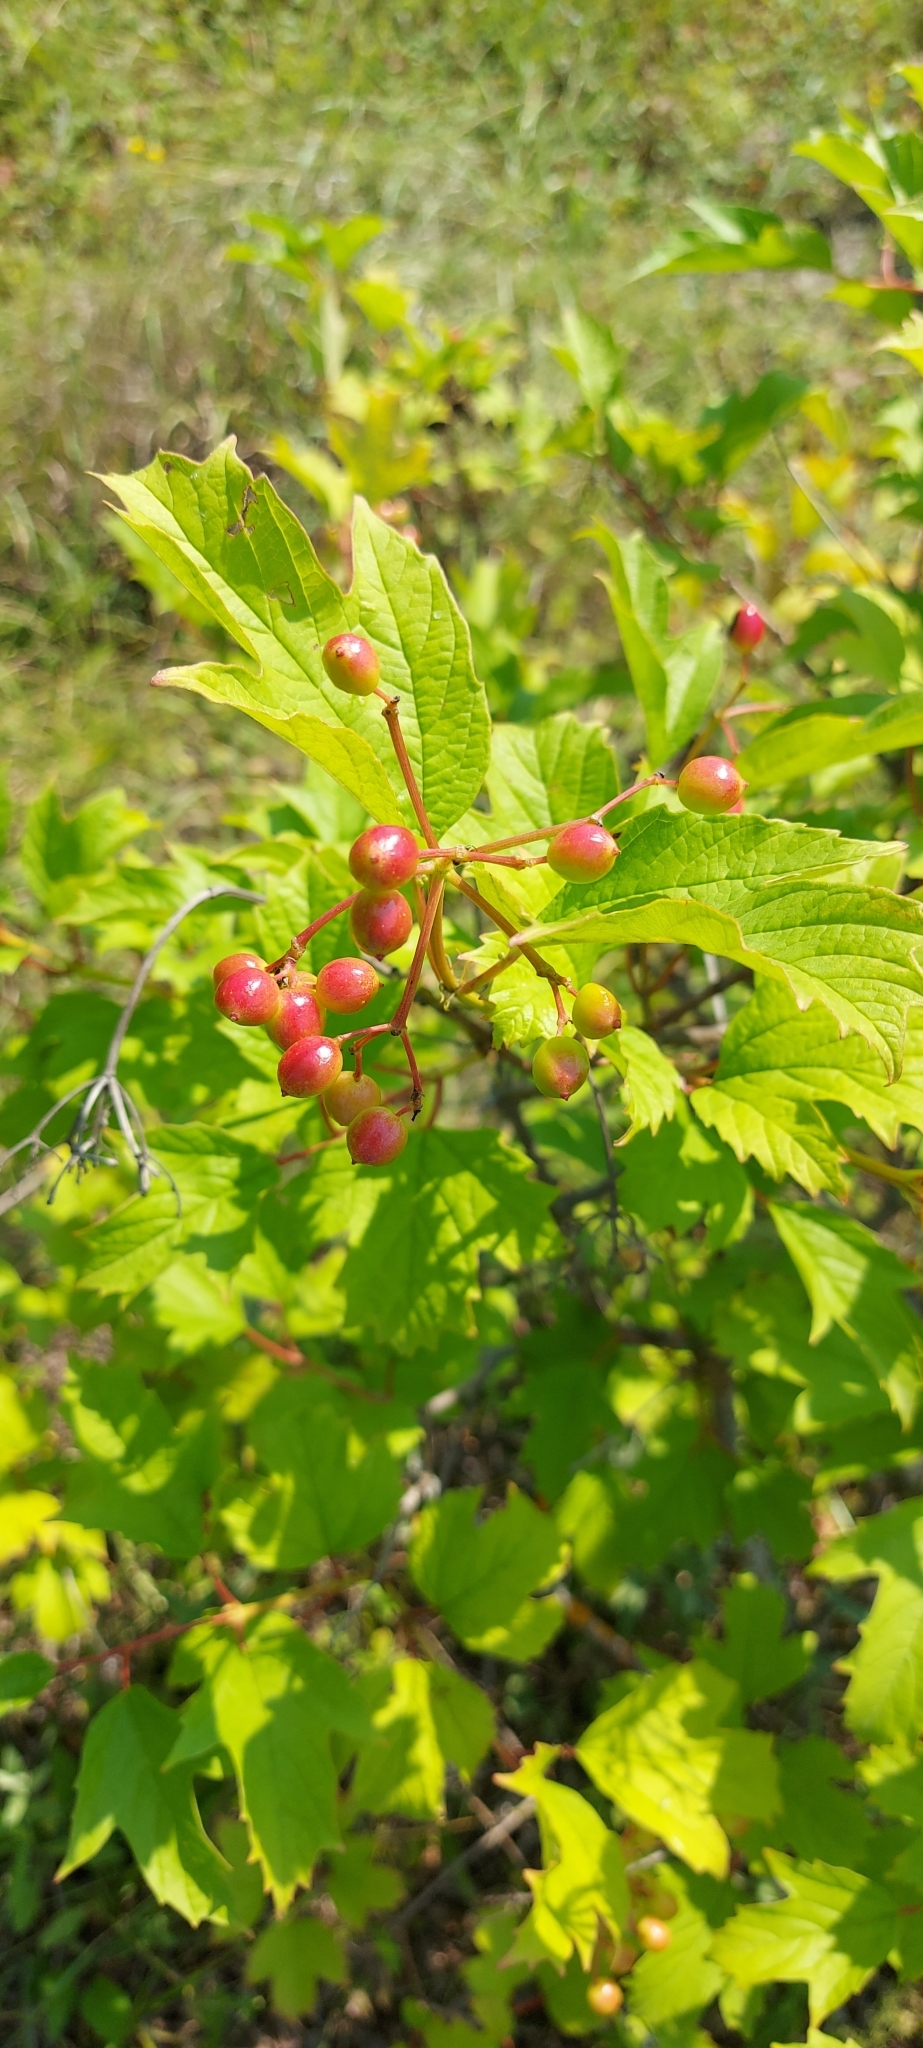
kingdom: Plantae
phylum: Tracheophyta
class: Magnoliopsida
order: Dipsacales
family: Viburnaceae
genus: Viburnum
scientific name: Viburnum opulus
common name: Guelder-rose
